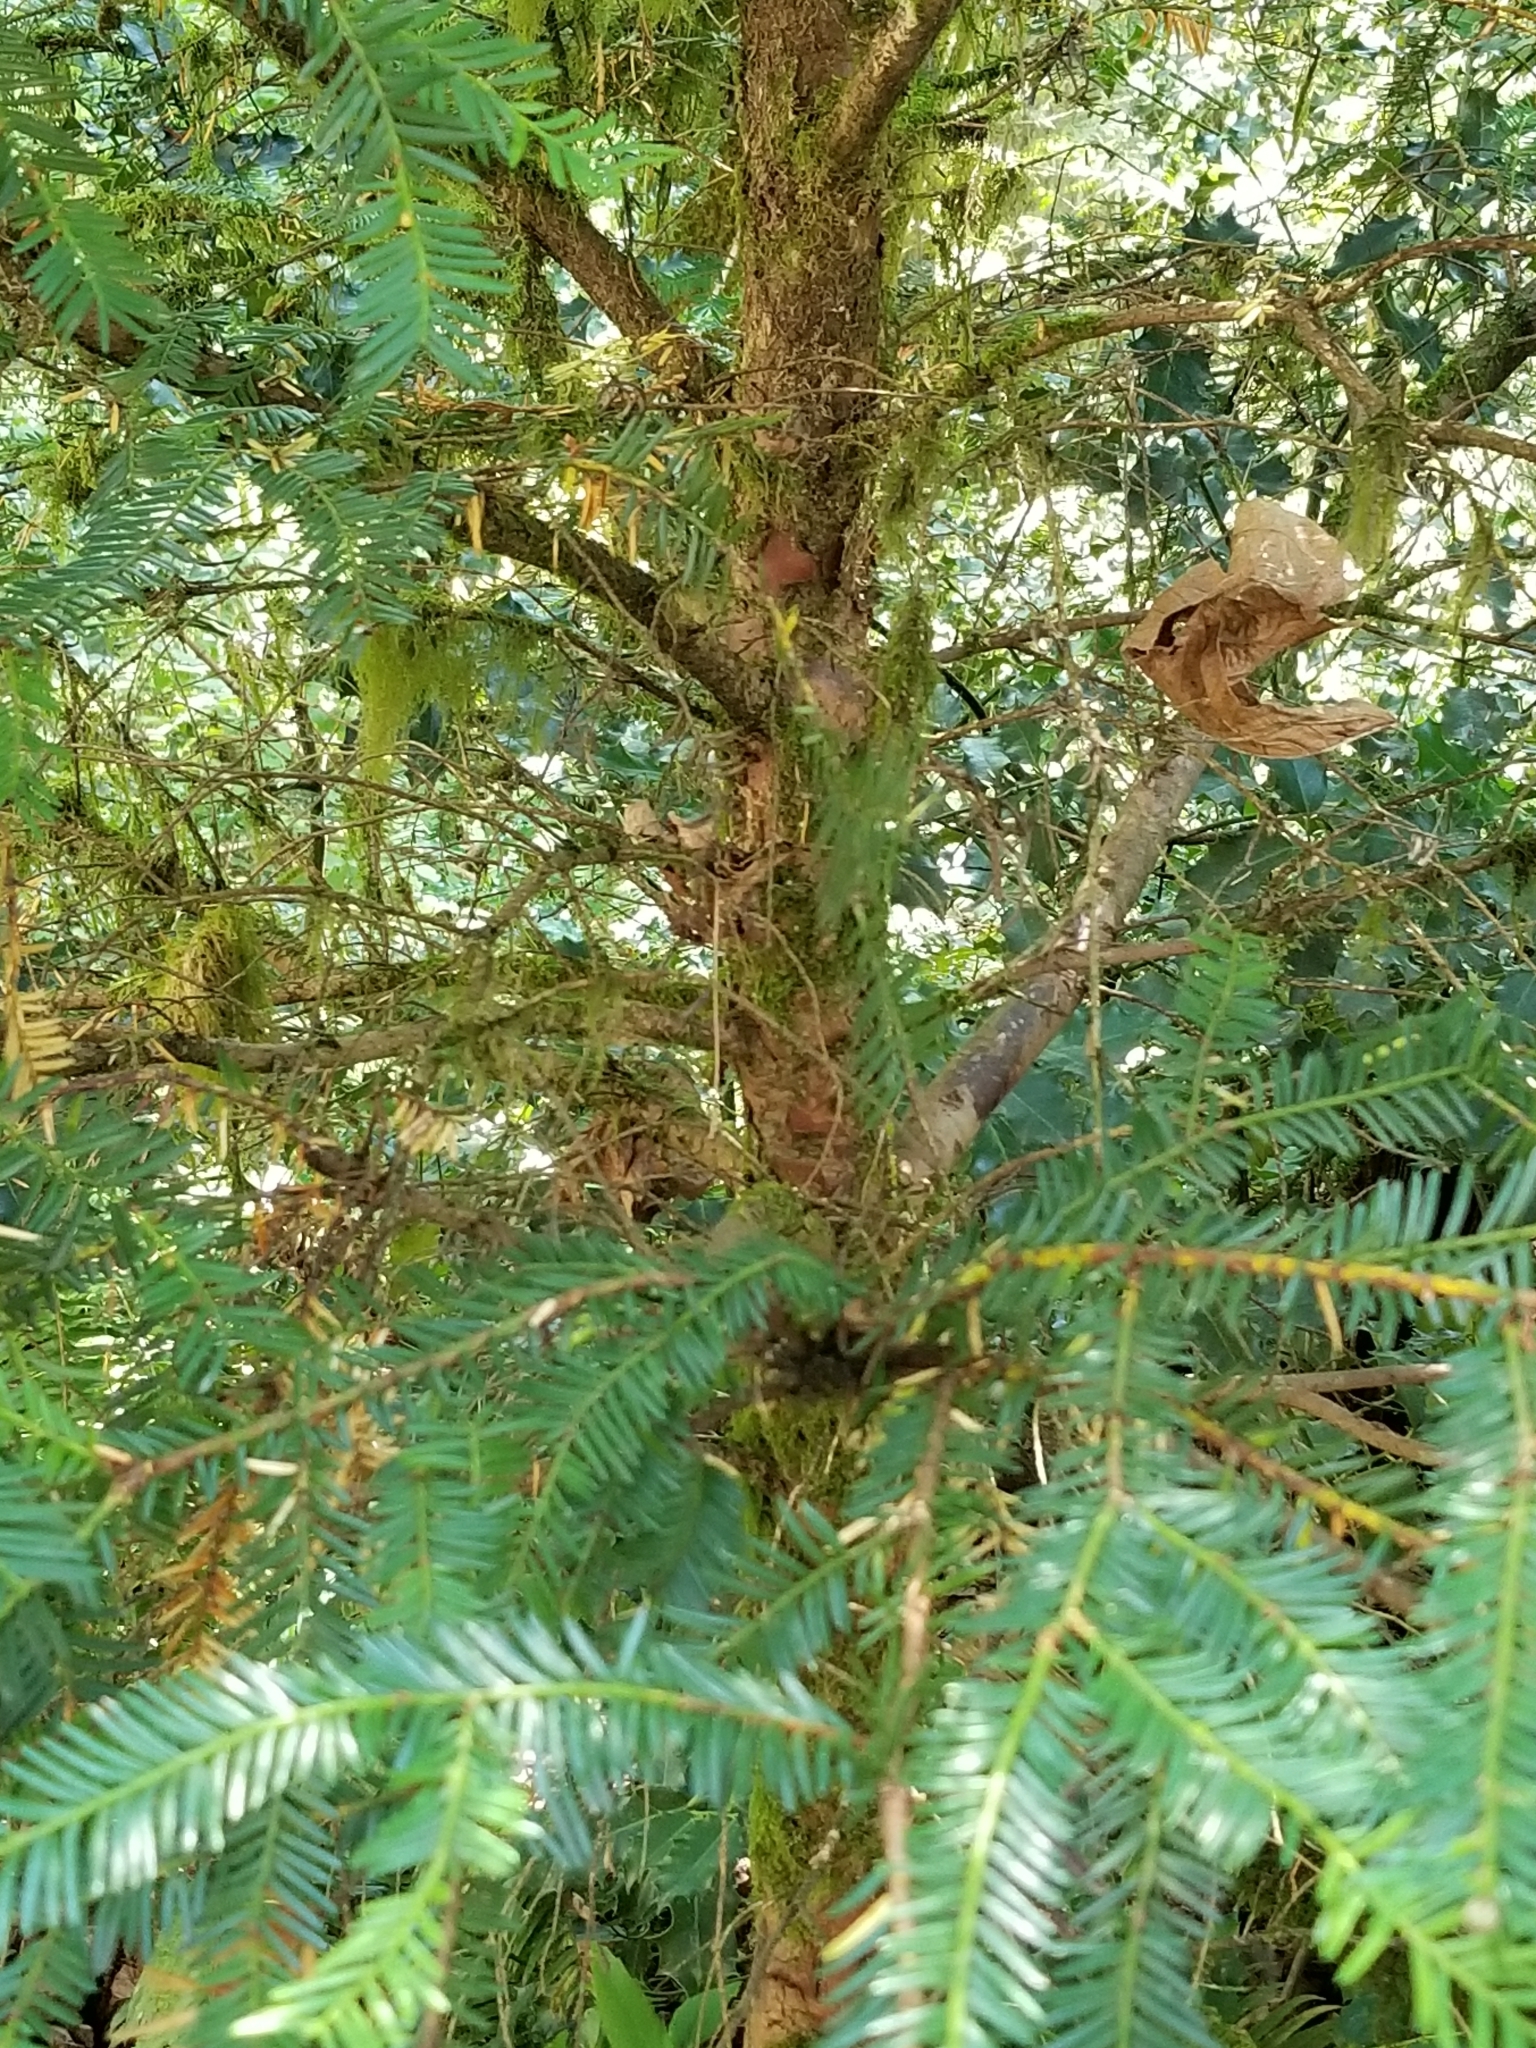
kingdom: Plantae
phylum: Tracheophyta
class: Pinopsida
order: Pinales
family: Taxaceae
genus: Taxus
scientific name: Taxus brevifolia
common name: Pacific yew
